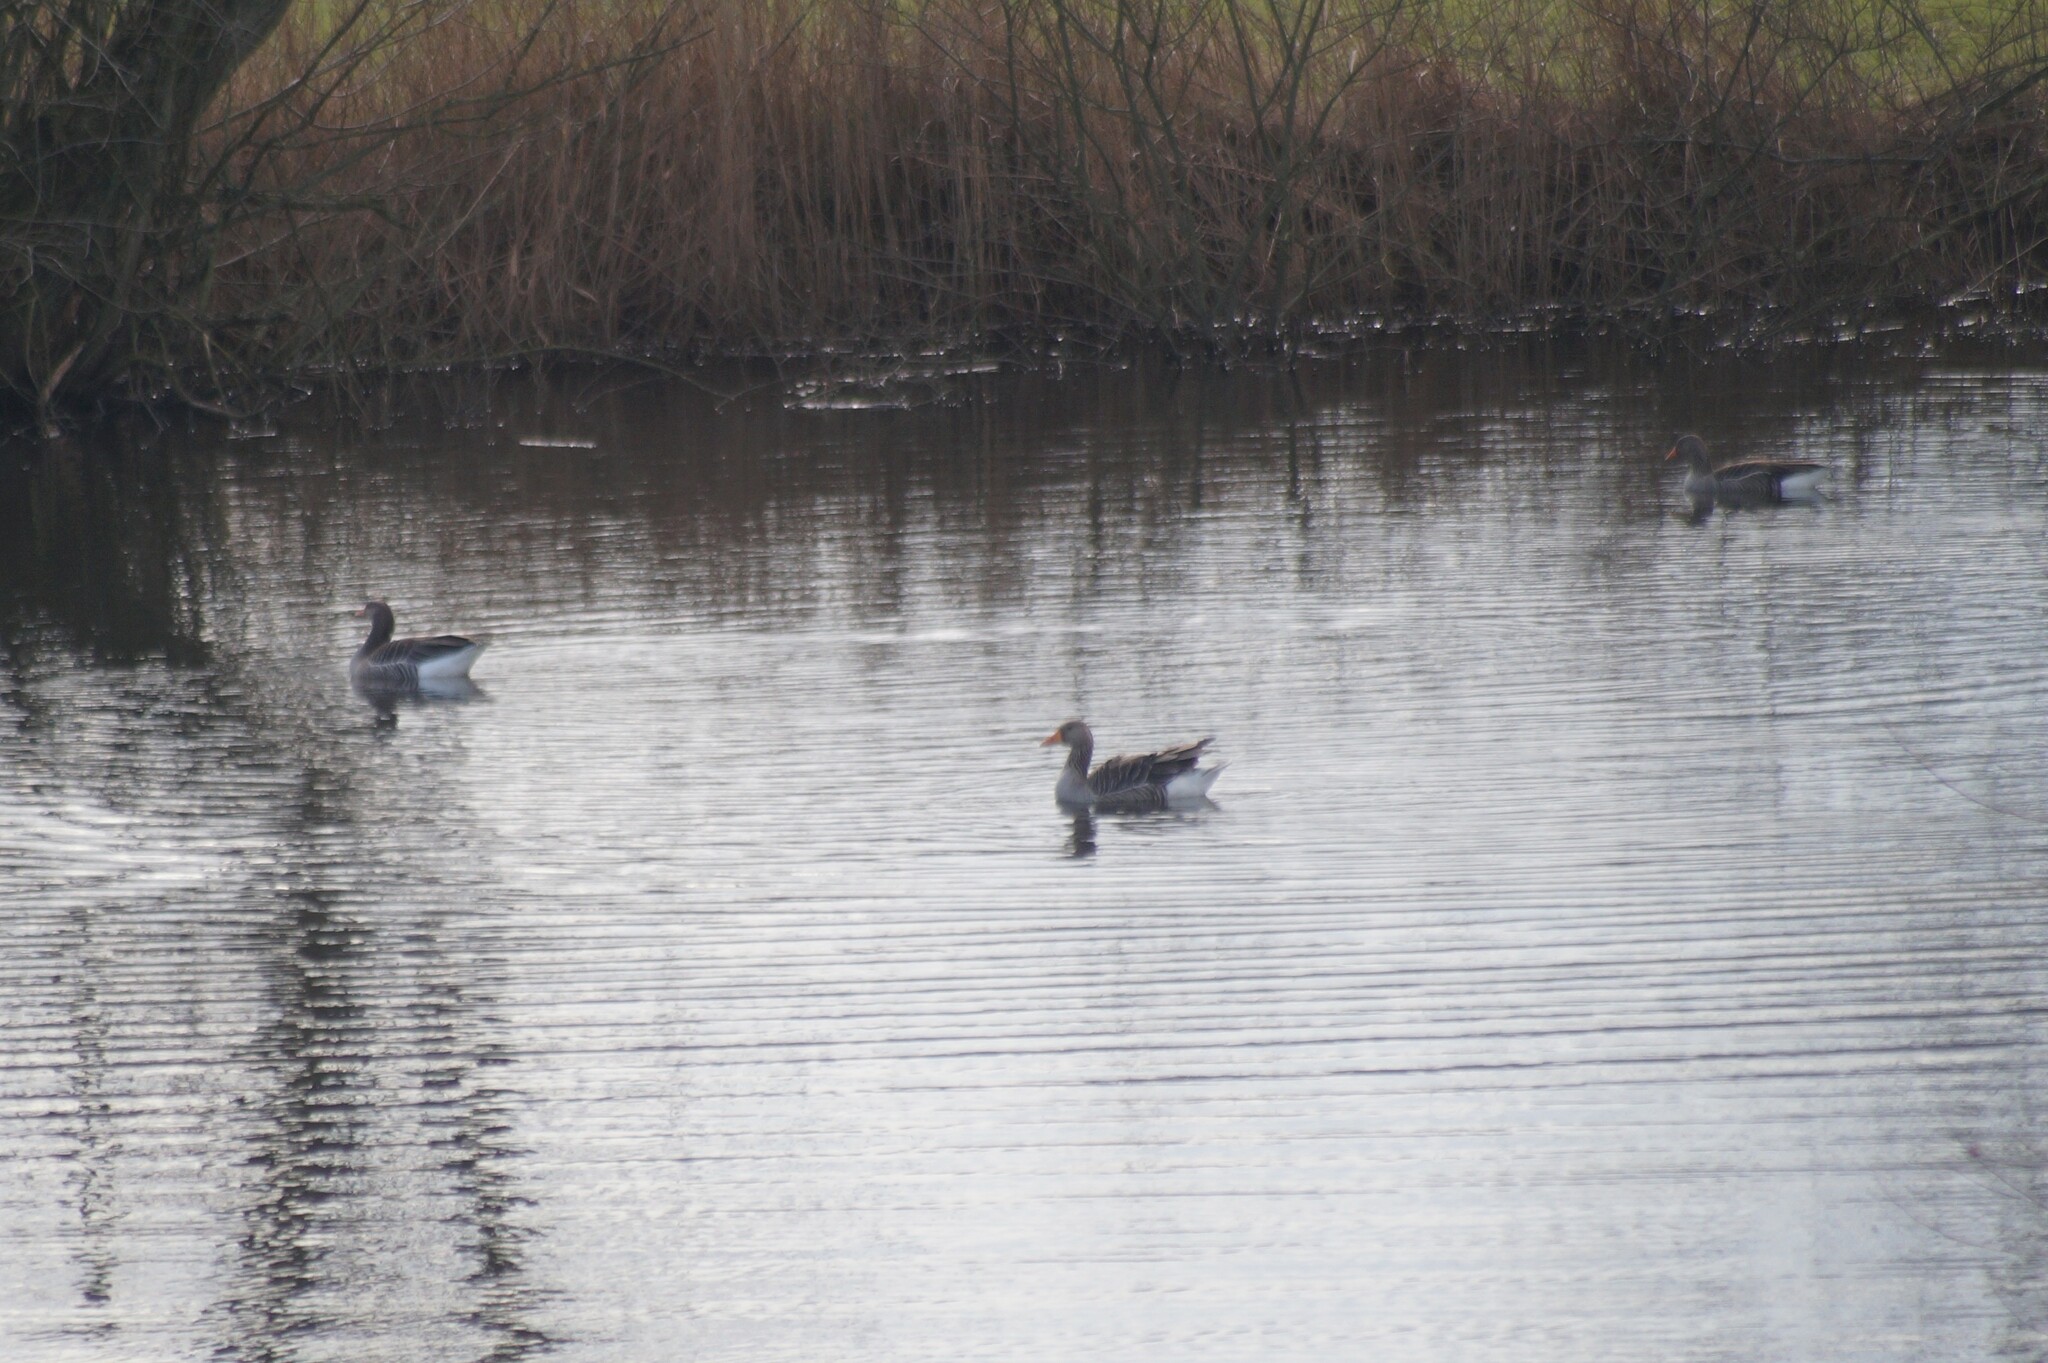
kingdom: Animalia
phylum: Chordata
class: Aves
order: Anseriformes
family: Anatidae
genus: Anser
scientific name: Anser anser
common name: Greylag goose
